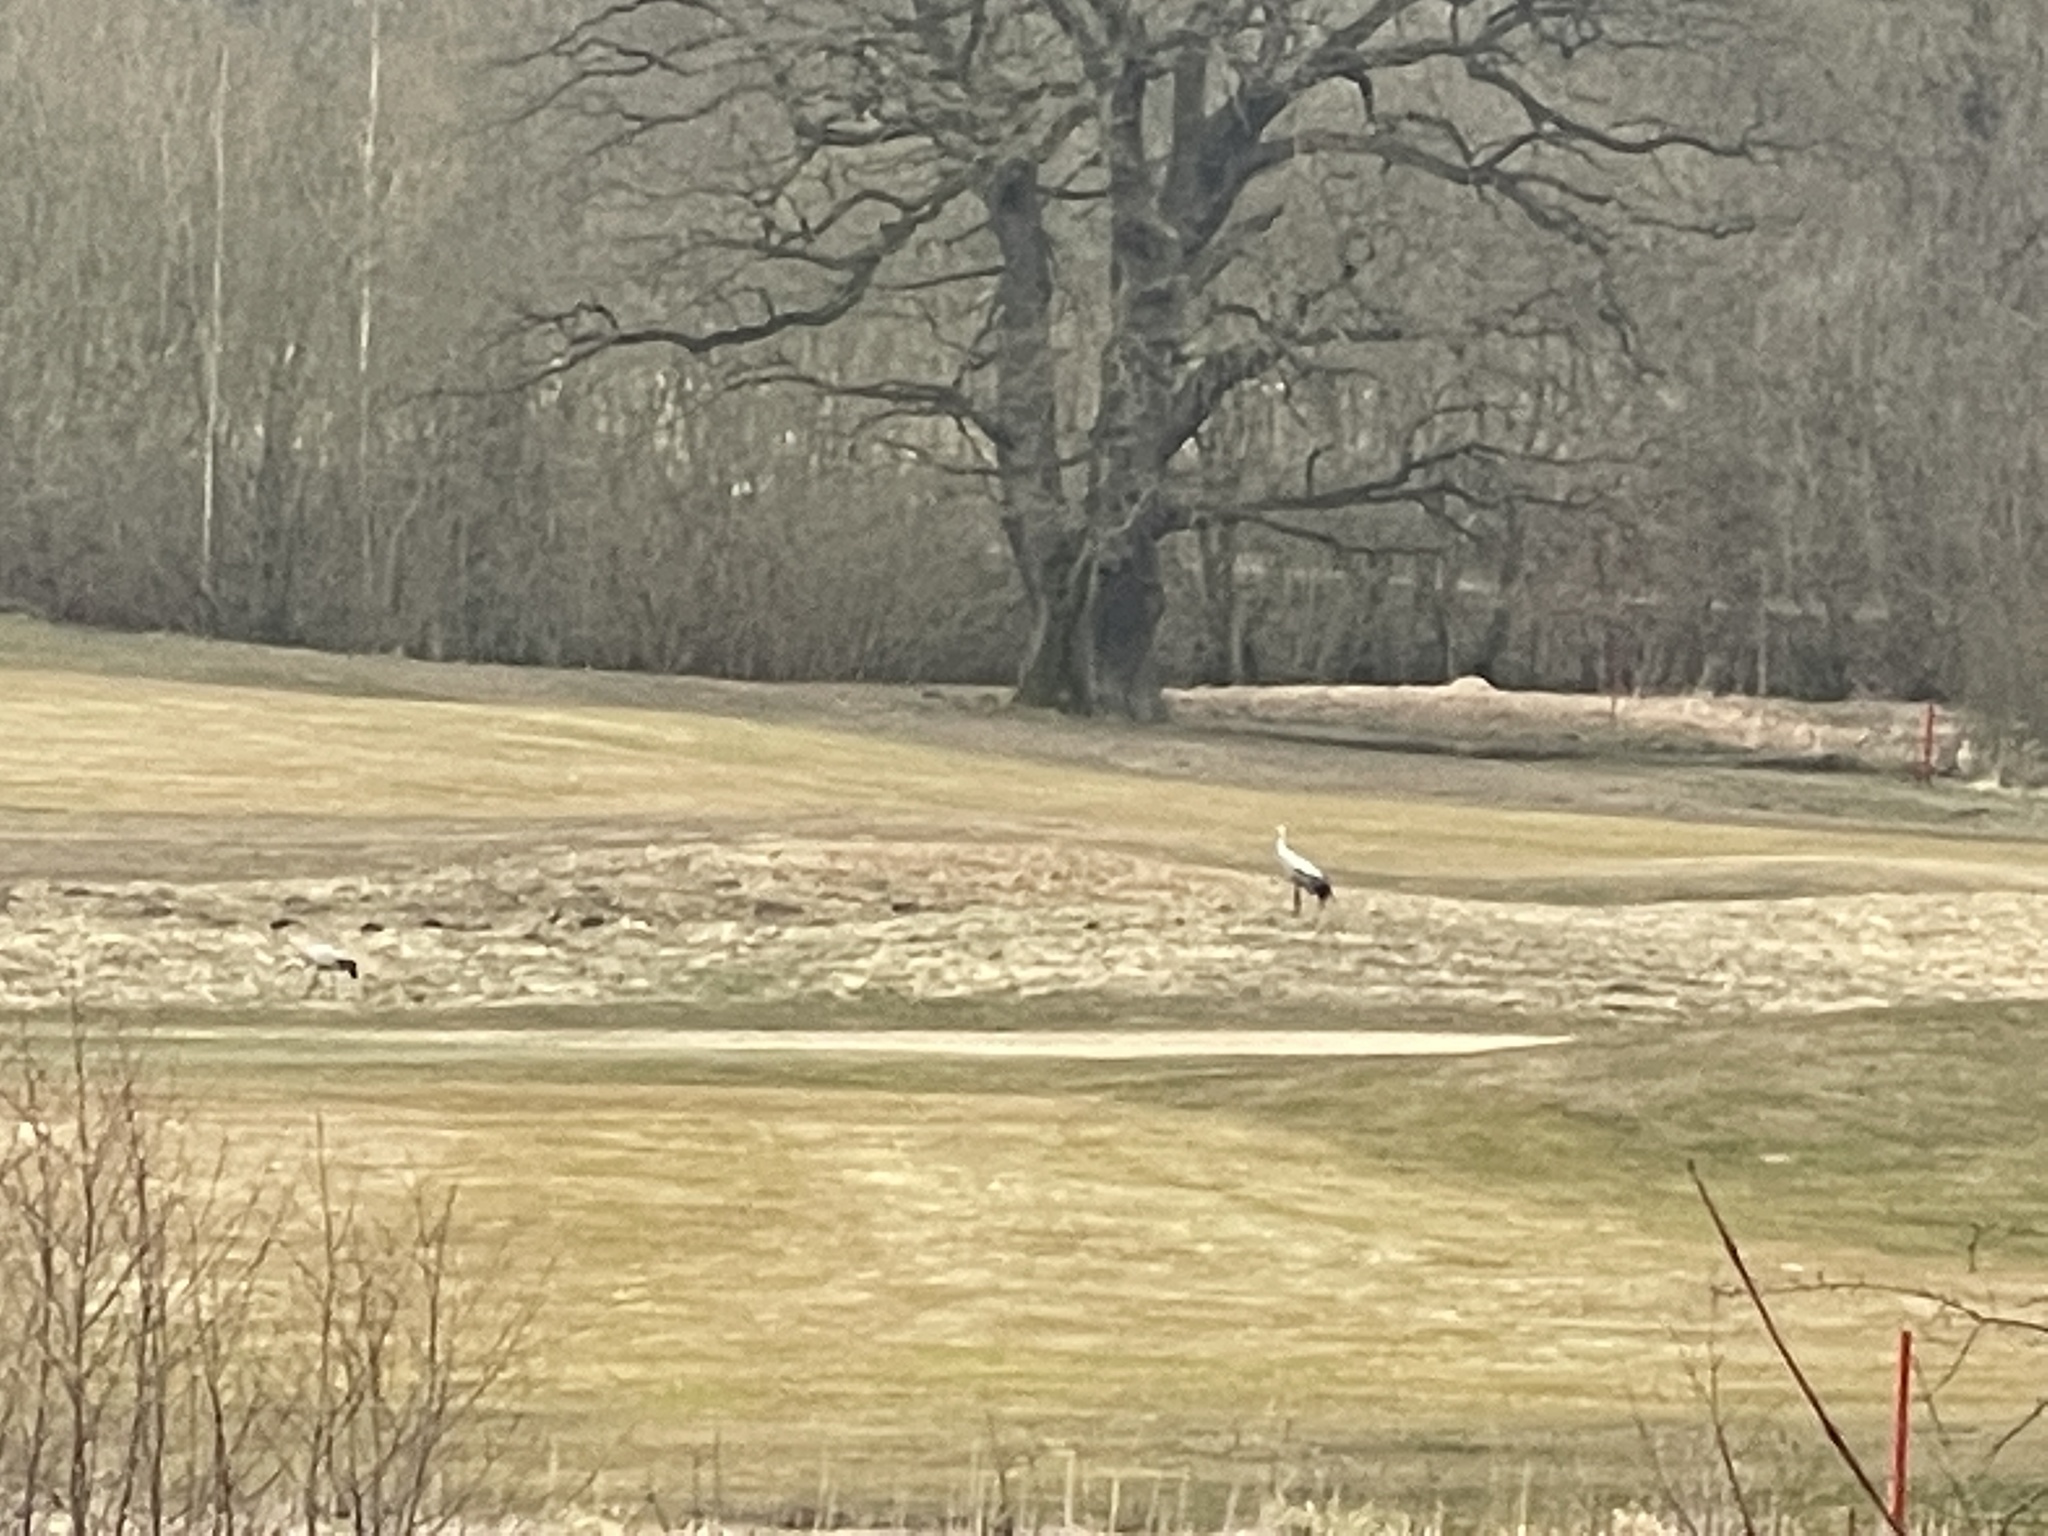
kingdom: Animalia
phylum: Chordata
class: Aves
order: Gruiformes
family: Gruidae
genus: Grus
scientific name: Grus grus
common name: Common crane
